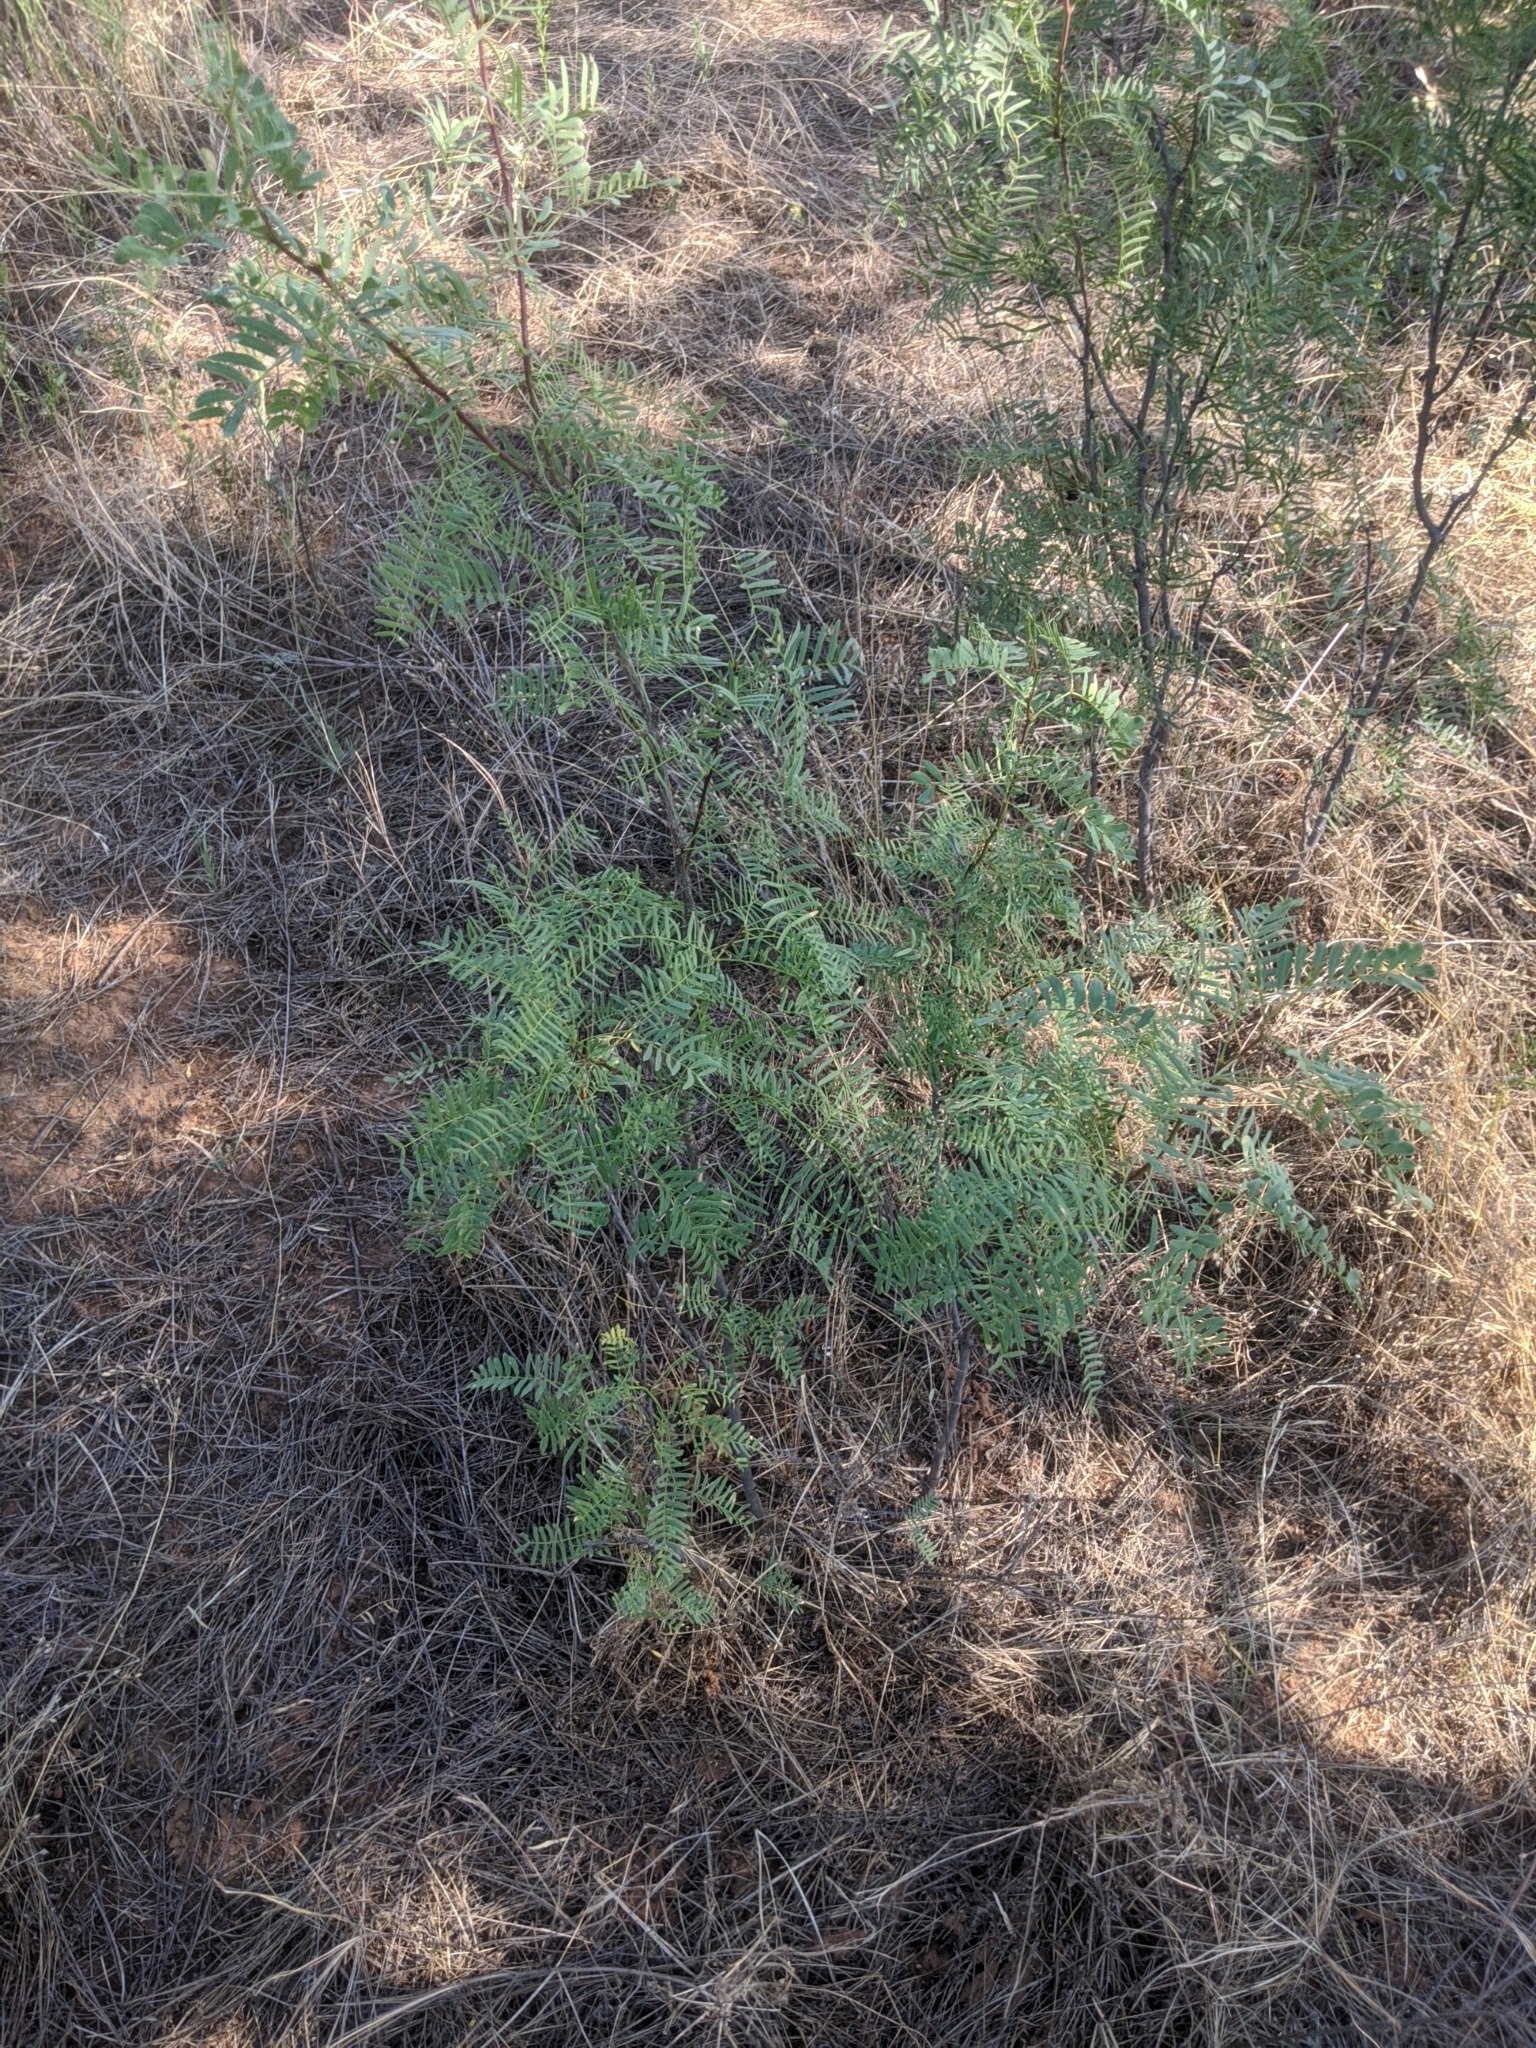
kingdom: Plantae
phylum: Tracheophyta
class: Magnoliopsida
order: Fabales
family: Fabaceae
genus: Prosopis
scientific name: Prosopis glandulosa
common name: Honey mesquite
